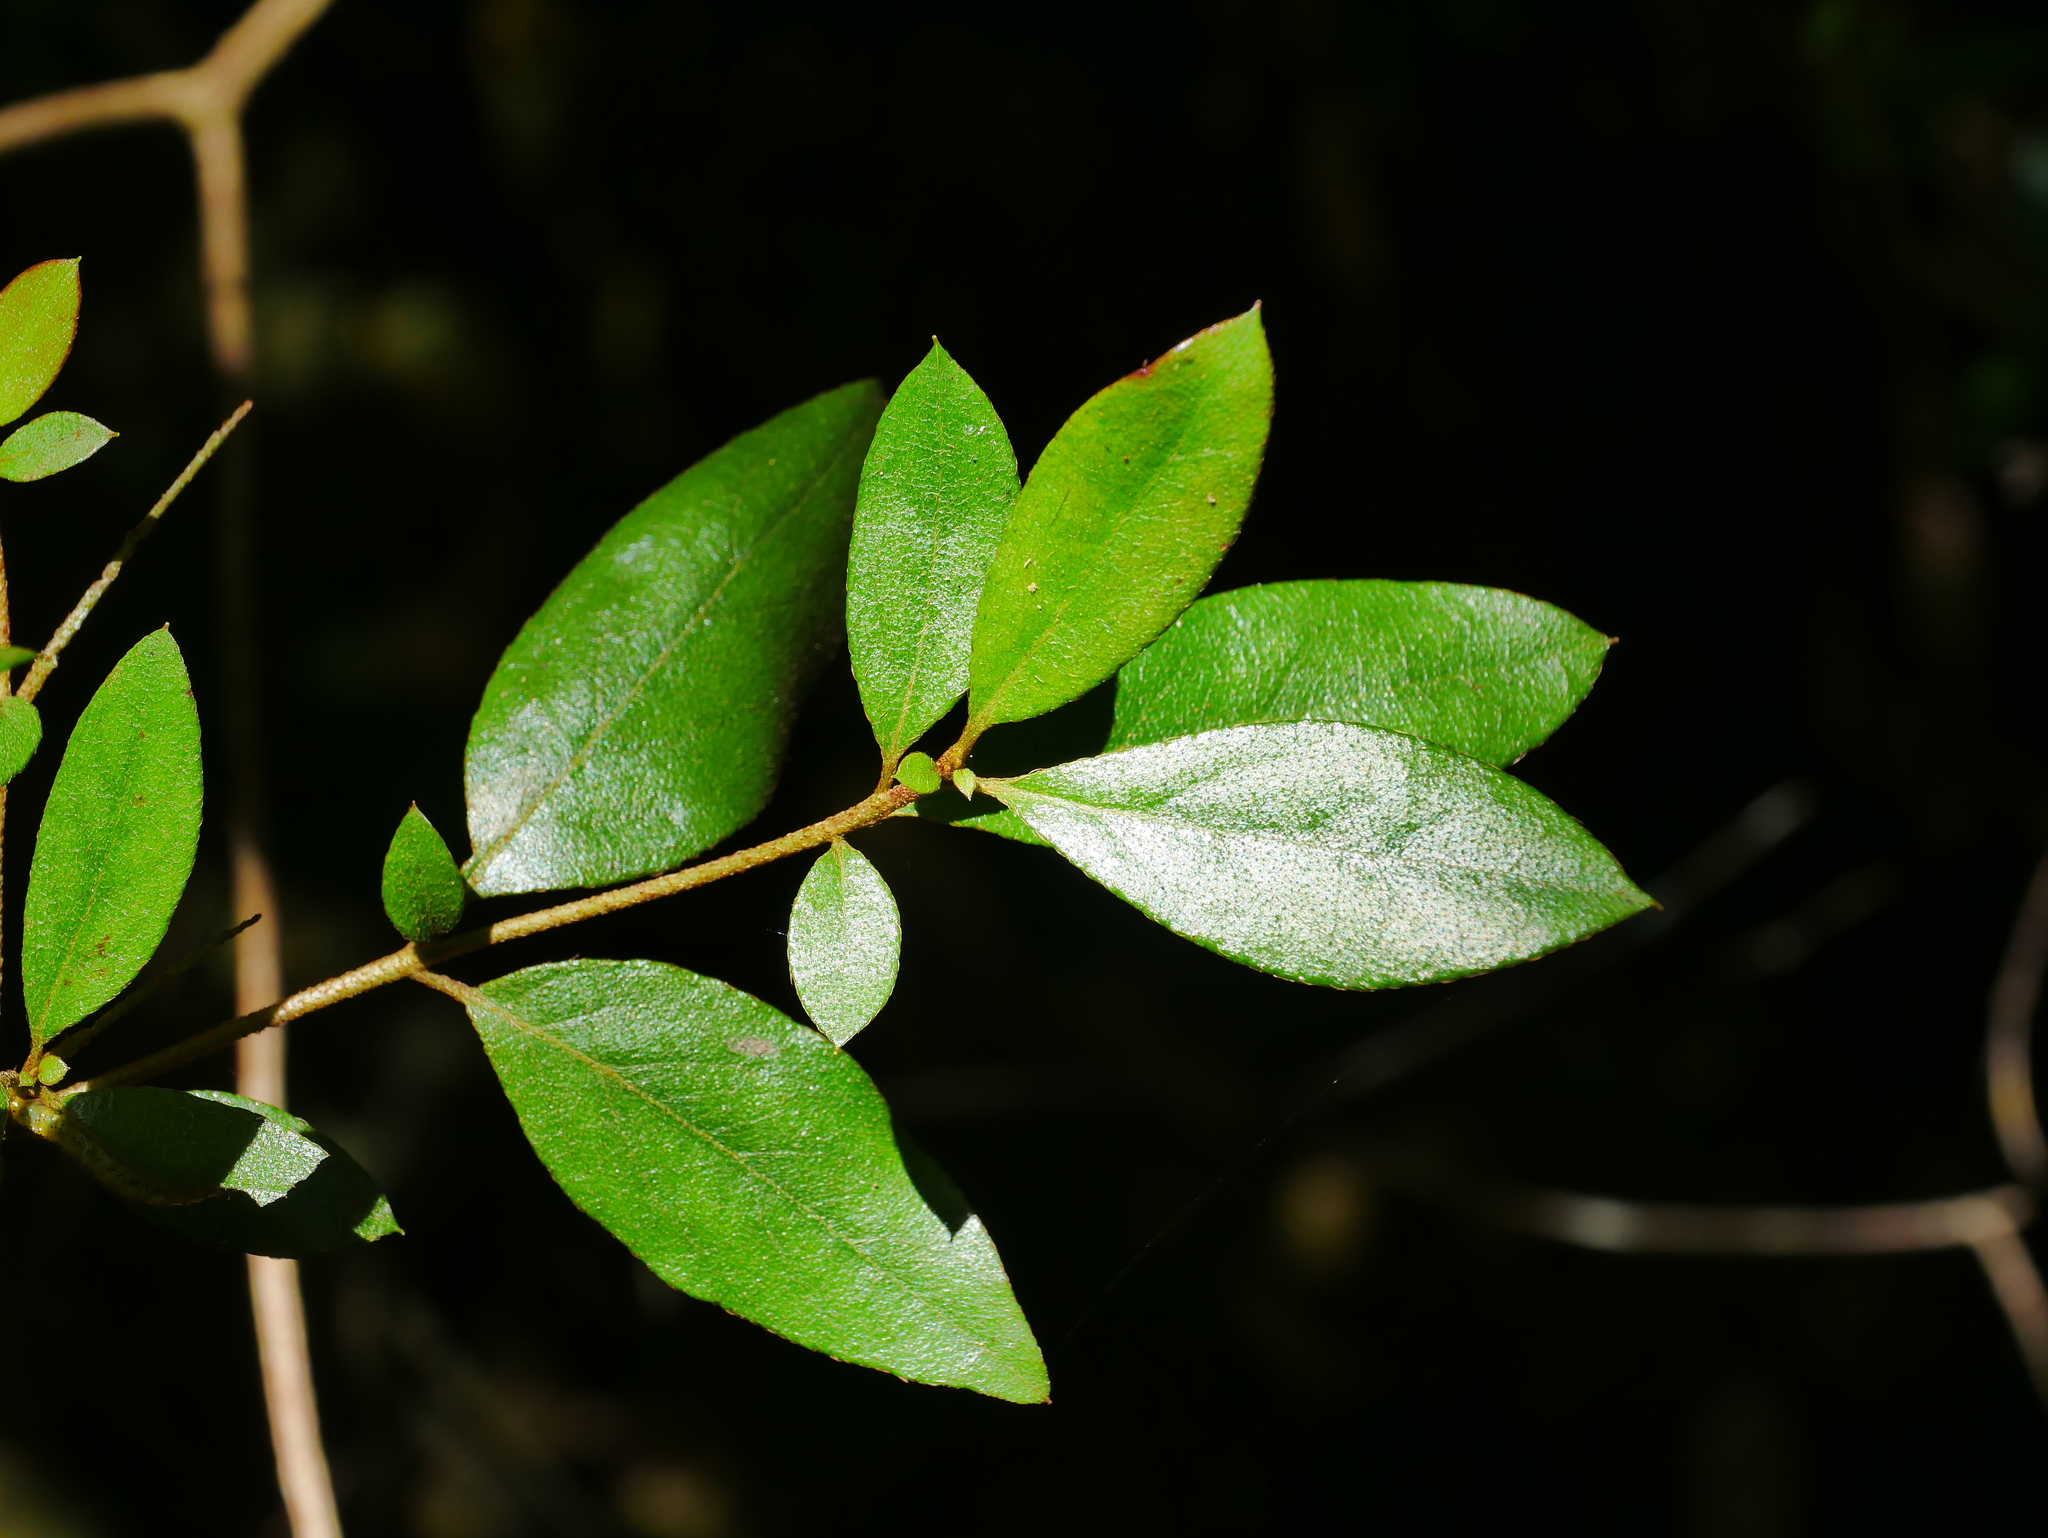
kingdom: Plantae
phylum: Tracheophyta
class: Magnoliopsida
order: Ericales
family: Ericaceae
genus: Rhododendron
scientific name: Rhododendron breviperulatum
